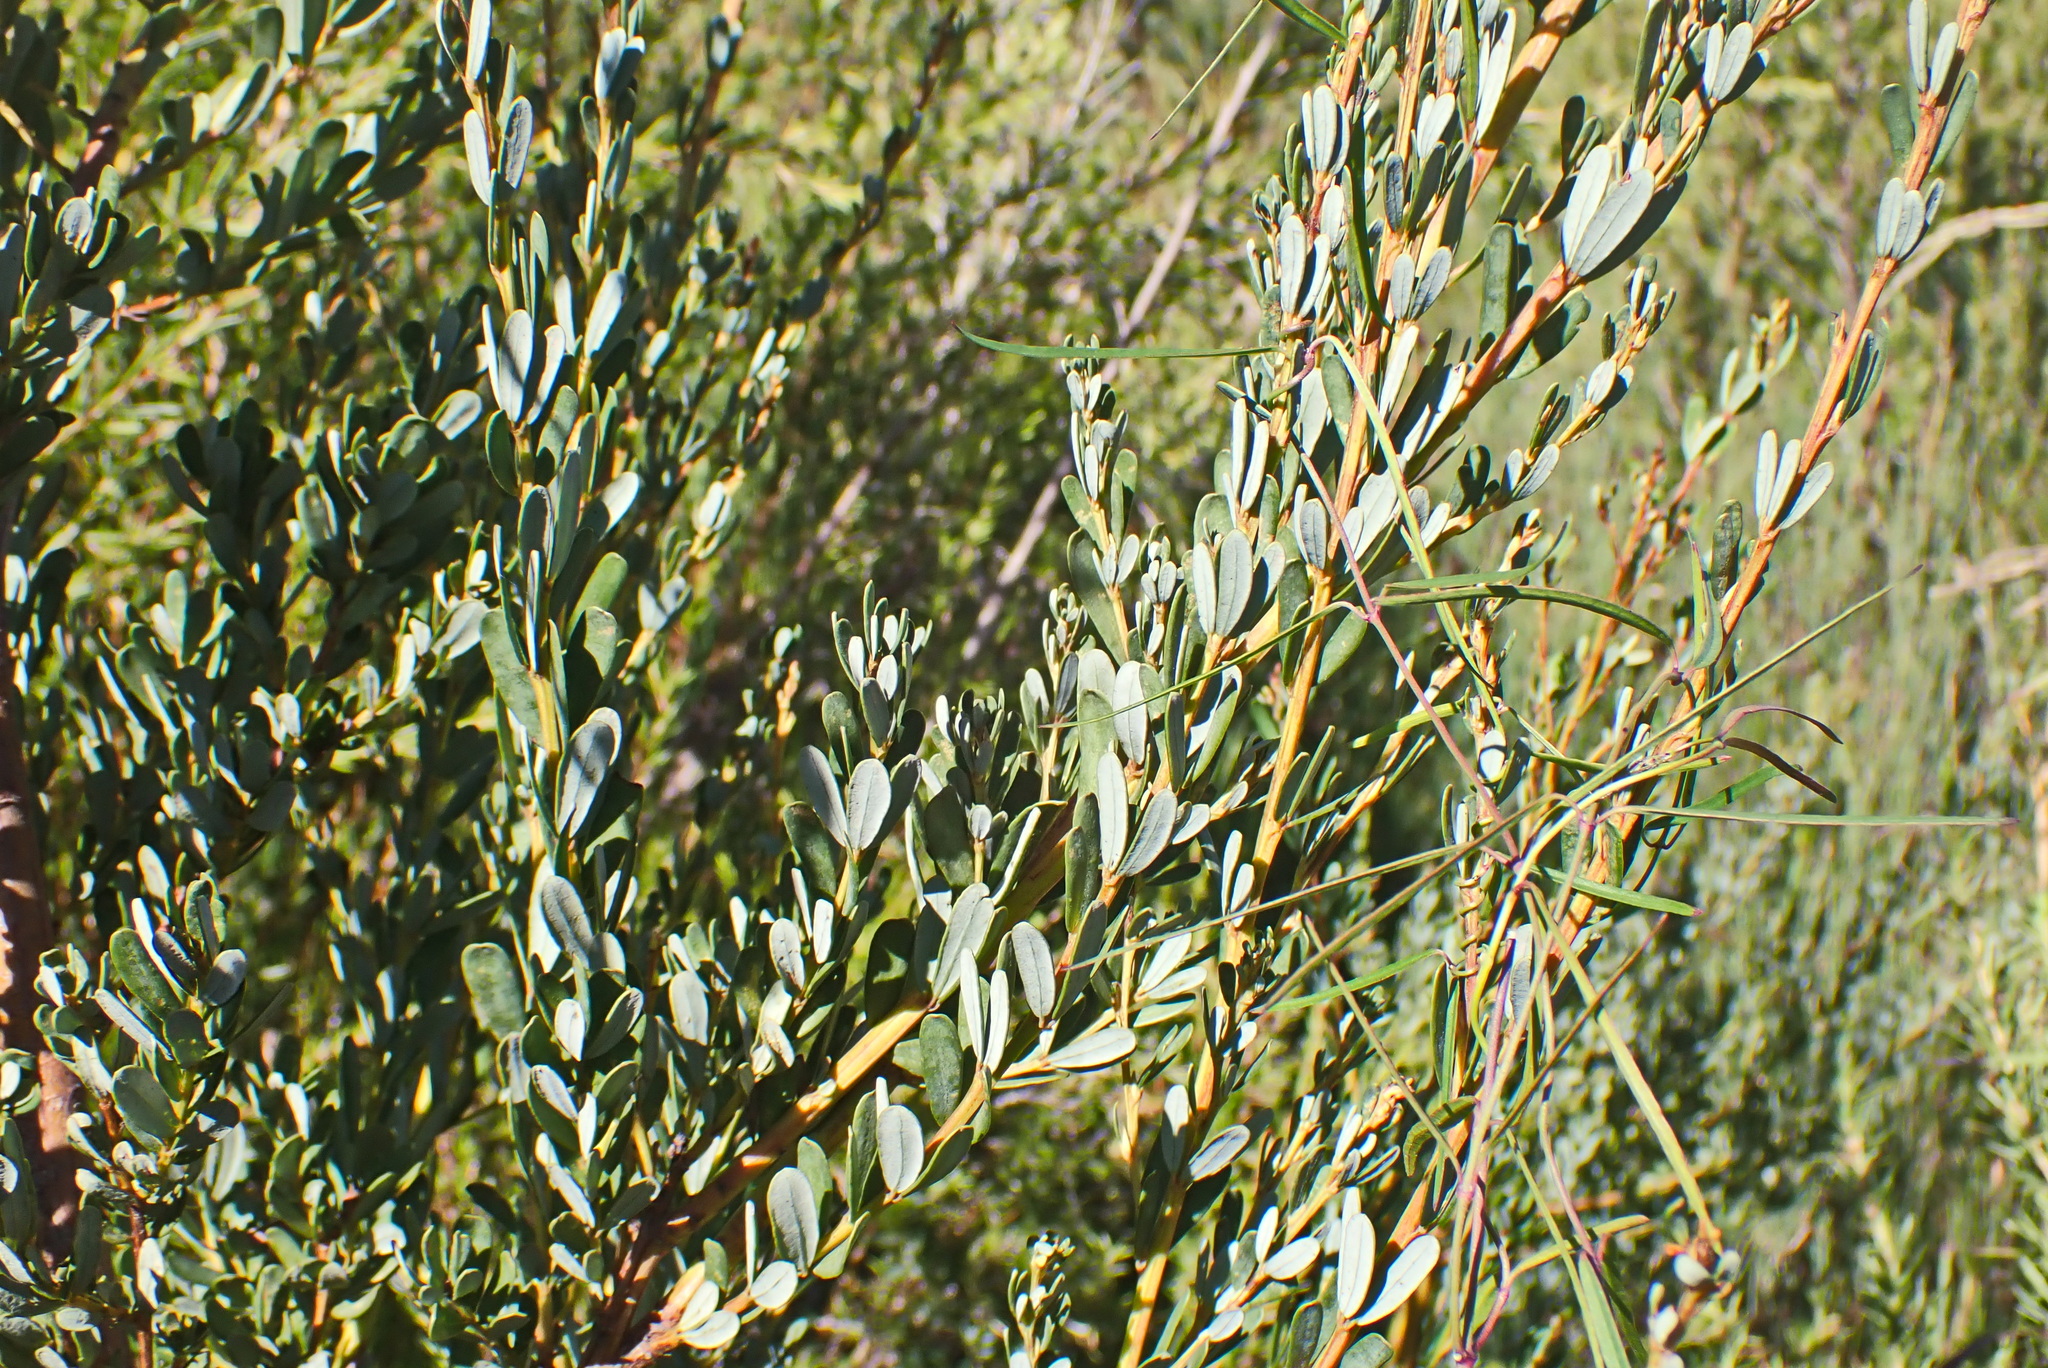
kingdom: Plantae
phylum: Tracheophyta
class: Magnoliopsida
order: Fabales
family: Fabaceae
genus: Cyclopia
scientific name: Cyclopia subternata
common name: Honeybush tea
